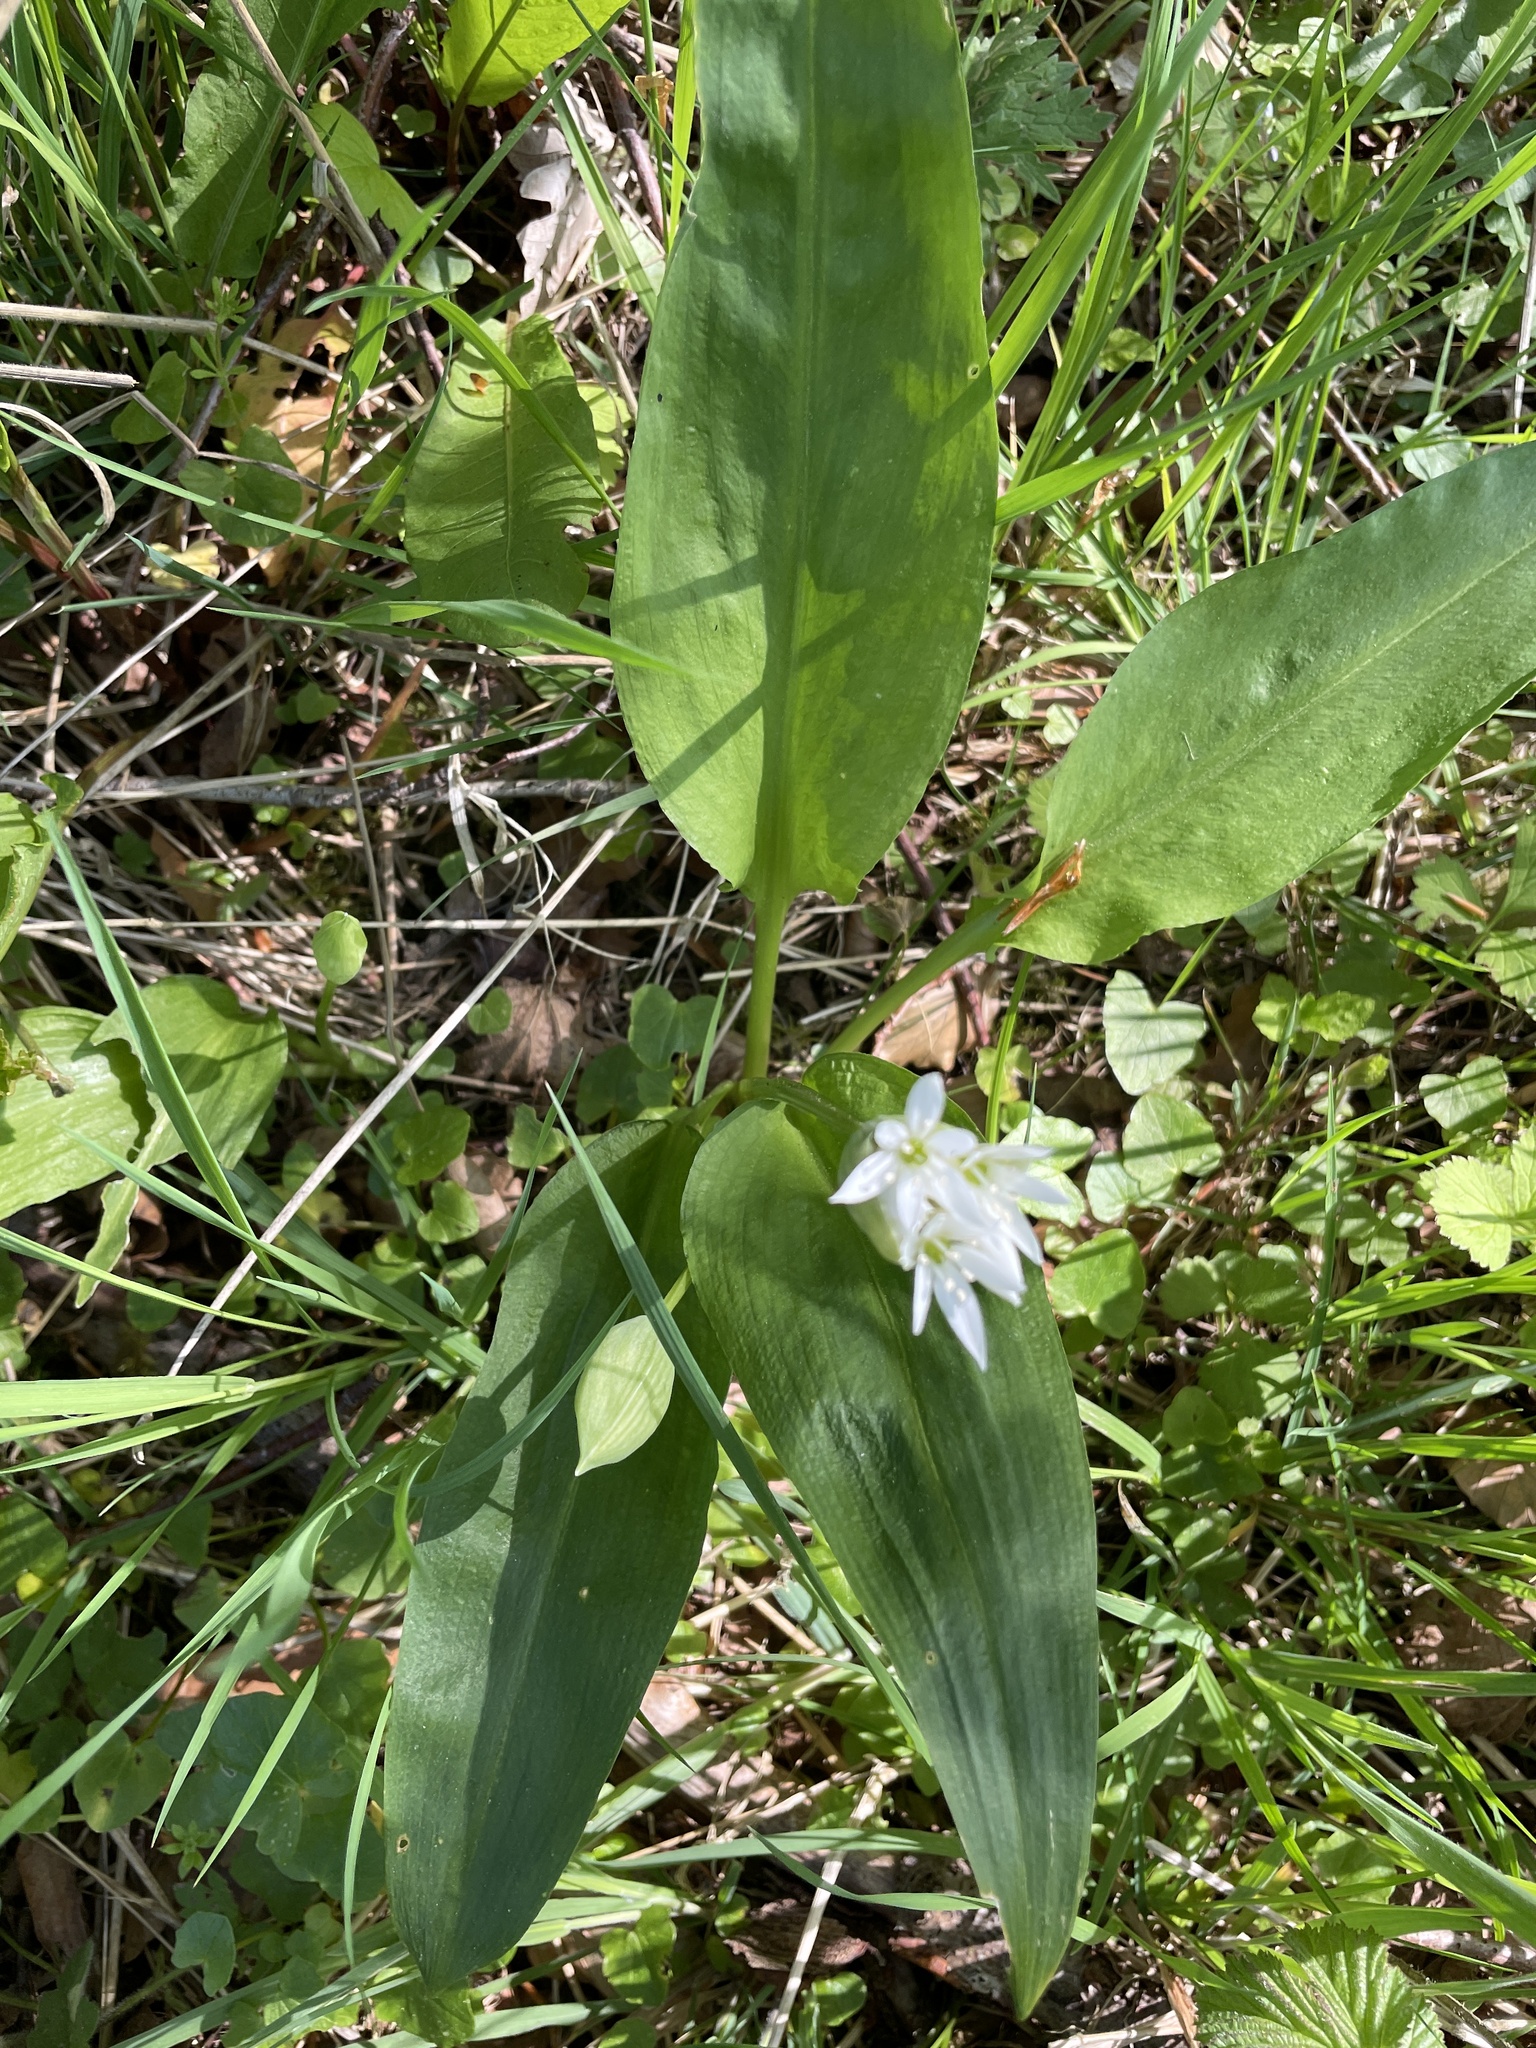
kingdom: Plantae
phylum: Tracheophyta
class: Liliopsida
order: Asparagales
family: Amaryllidaceae
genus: Allium
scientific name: Allium ursinum
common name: Ramsons
